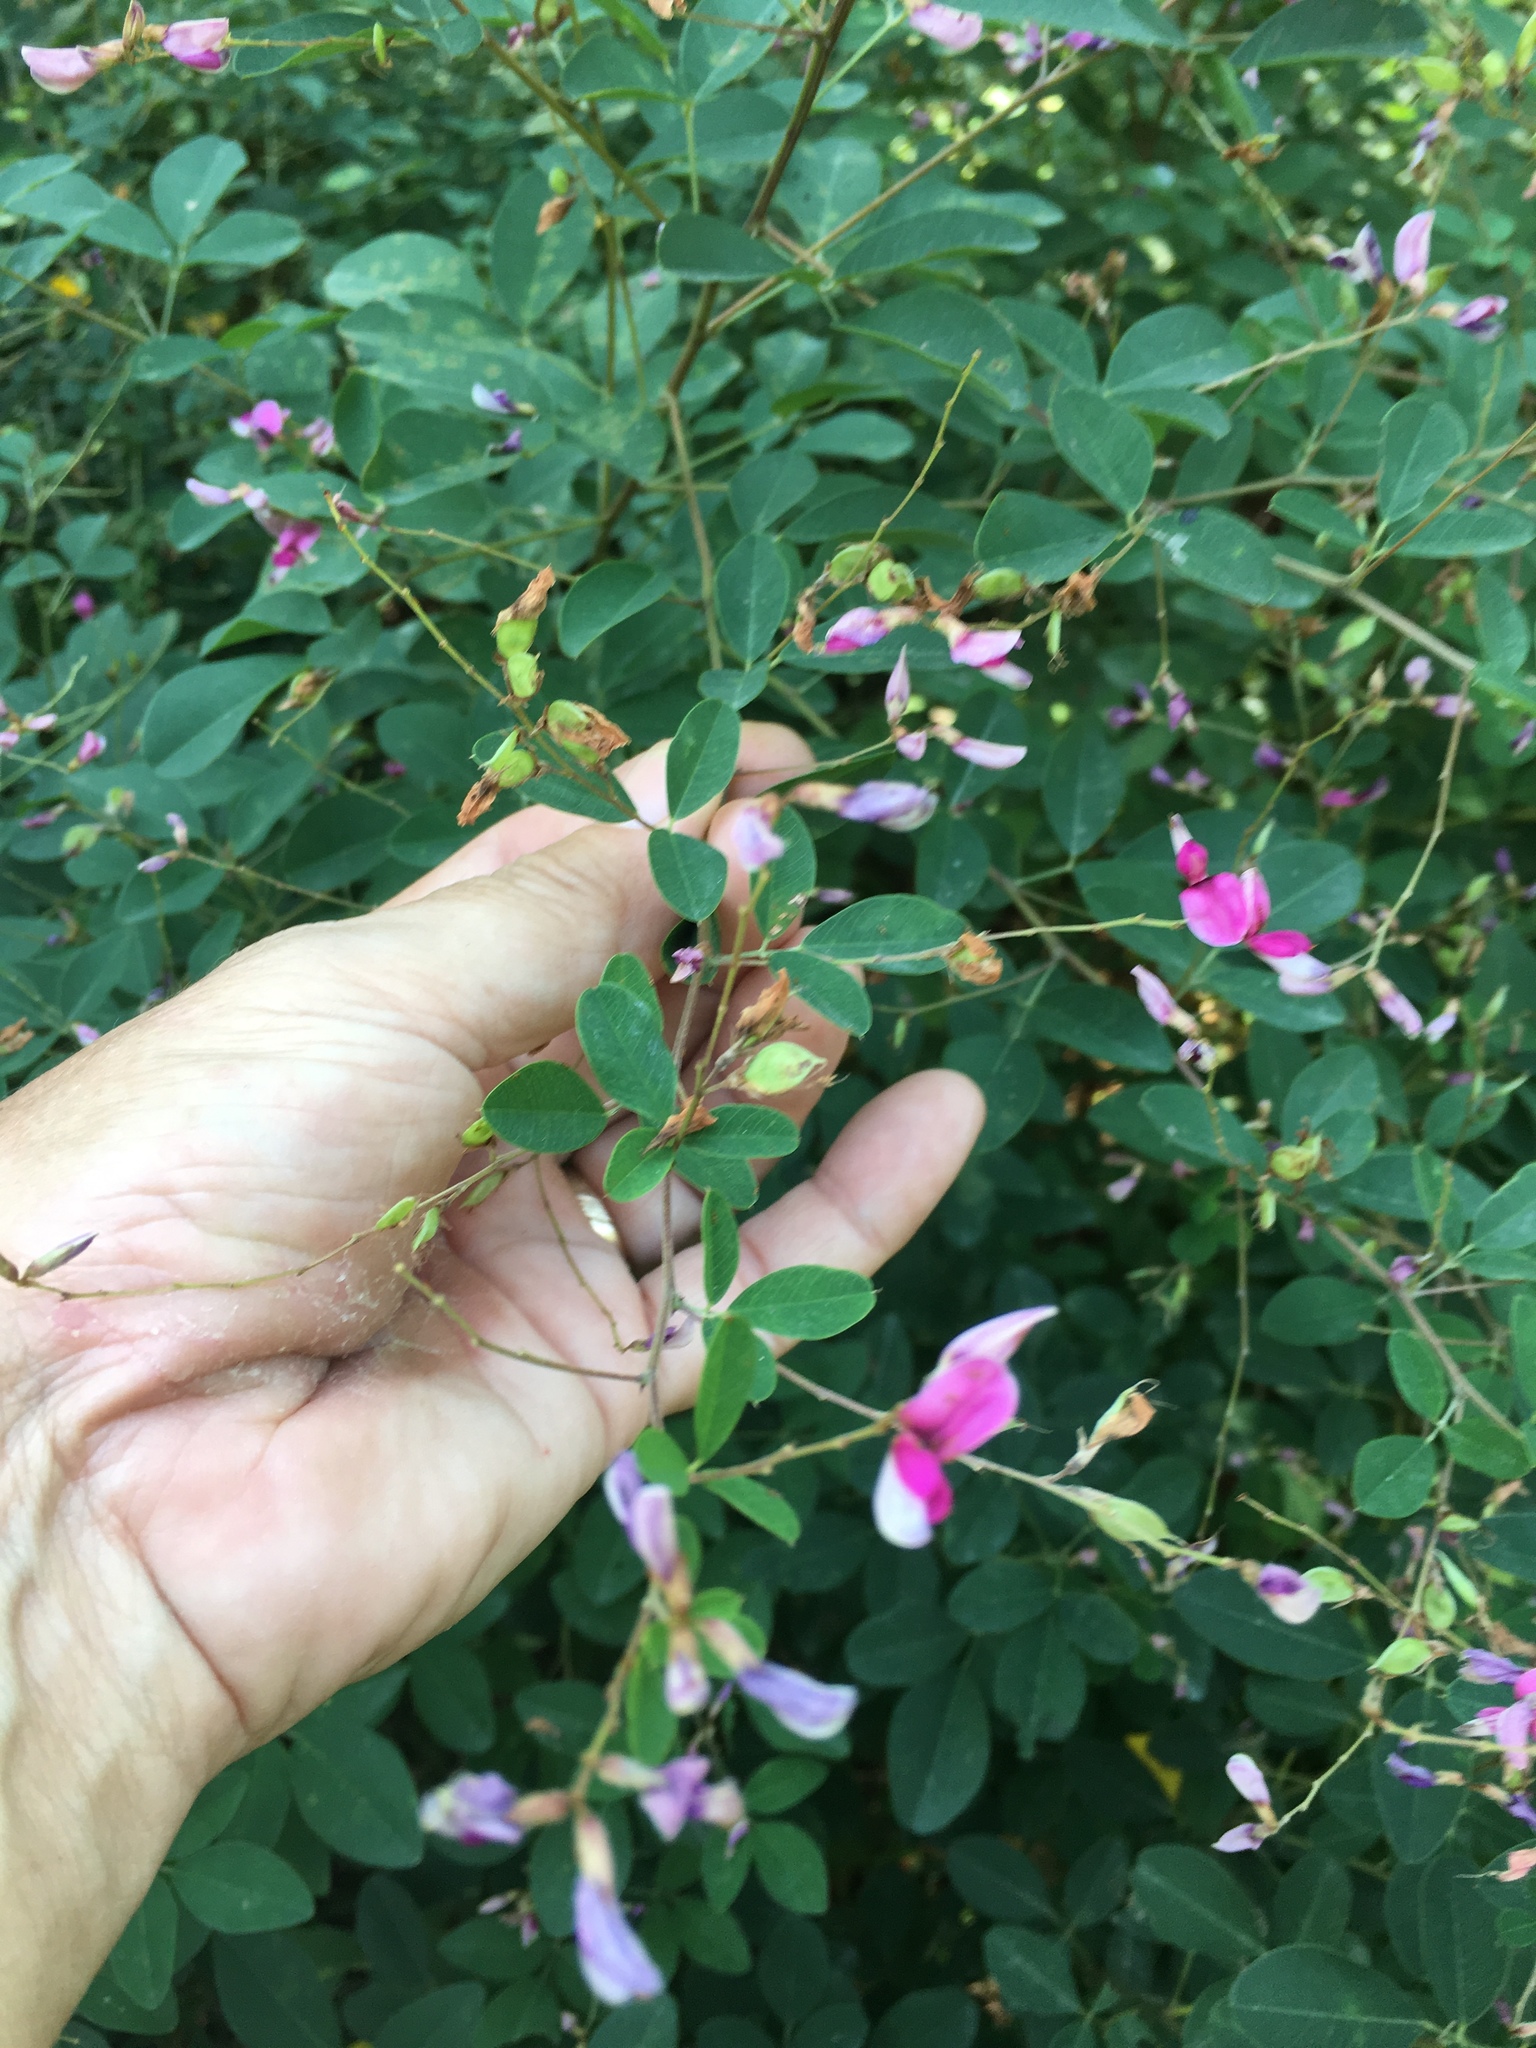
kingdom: Plantae
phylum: Tracheophyta
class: Magnoliopsida
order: Fabales
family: Fabaceae
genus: Lespedeza
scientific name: Lespedeza bicolor
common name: Shrub lespedeza
